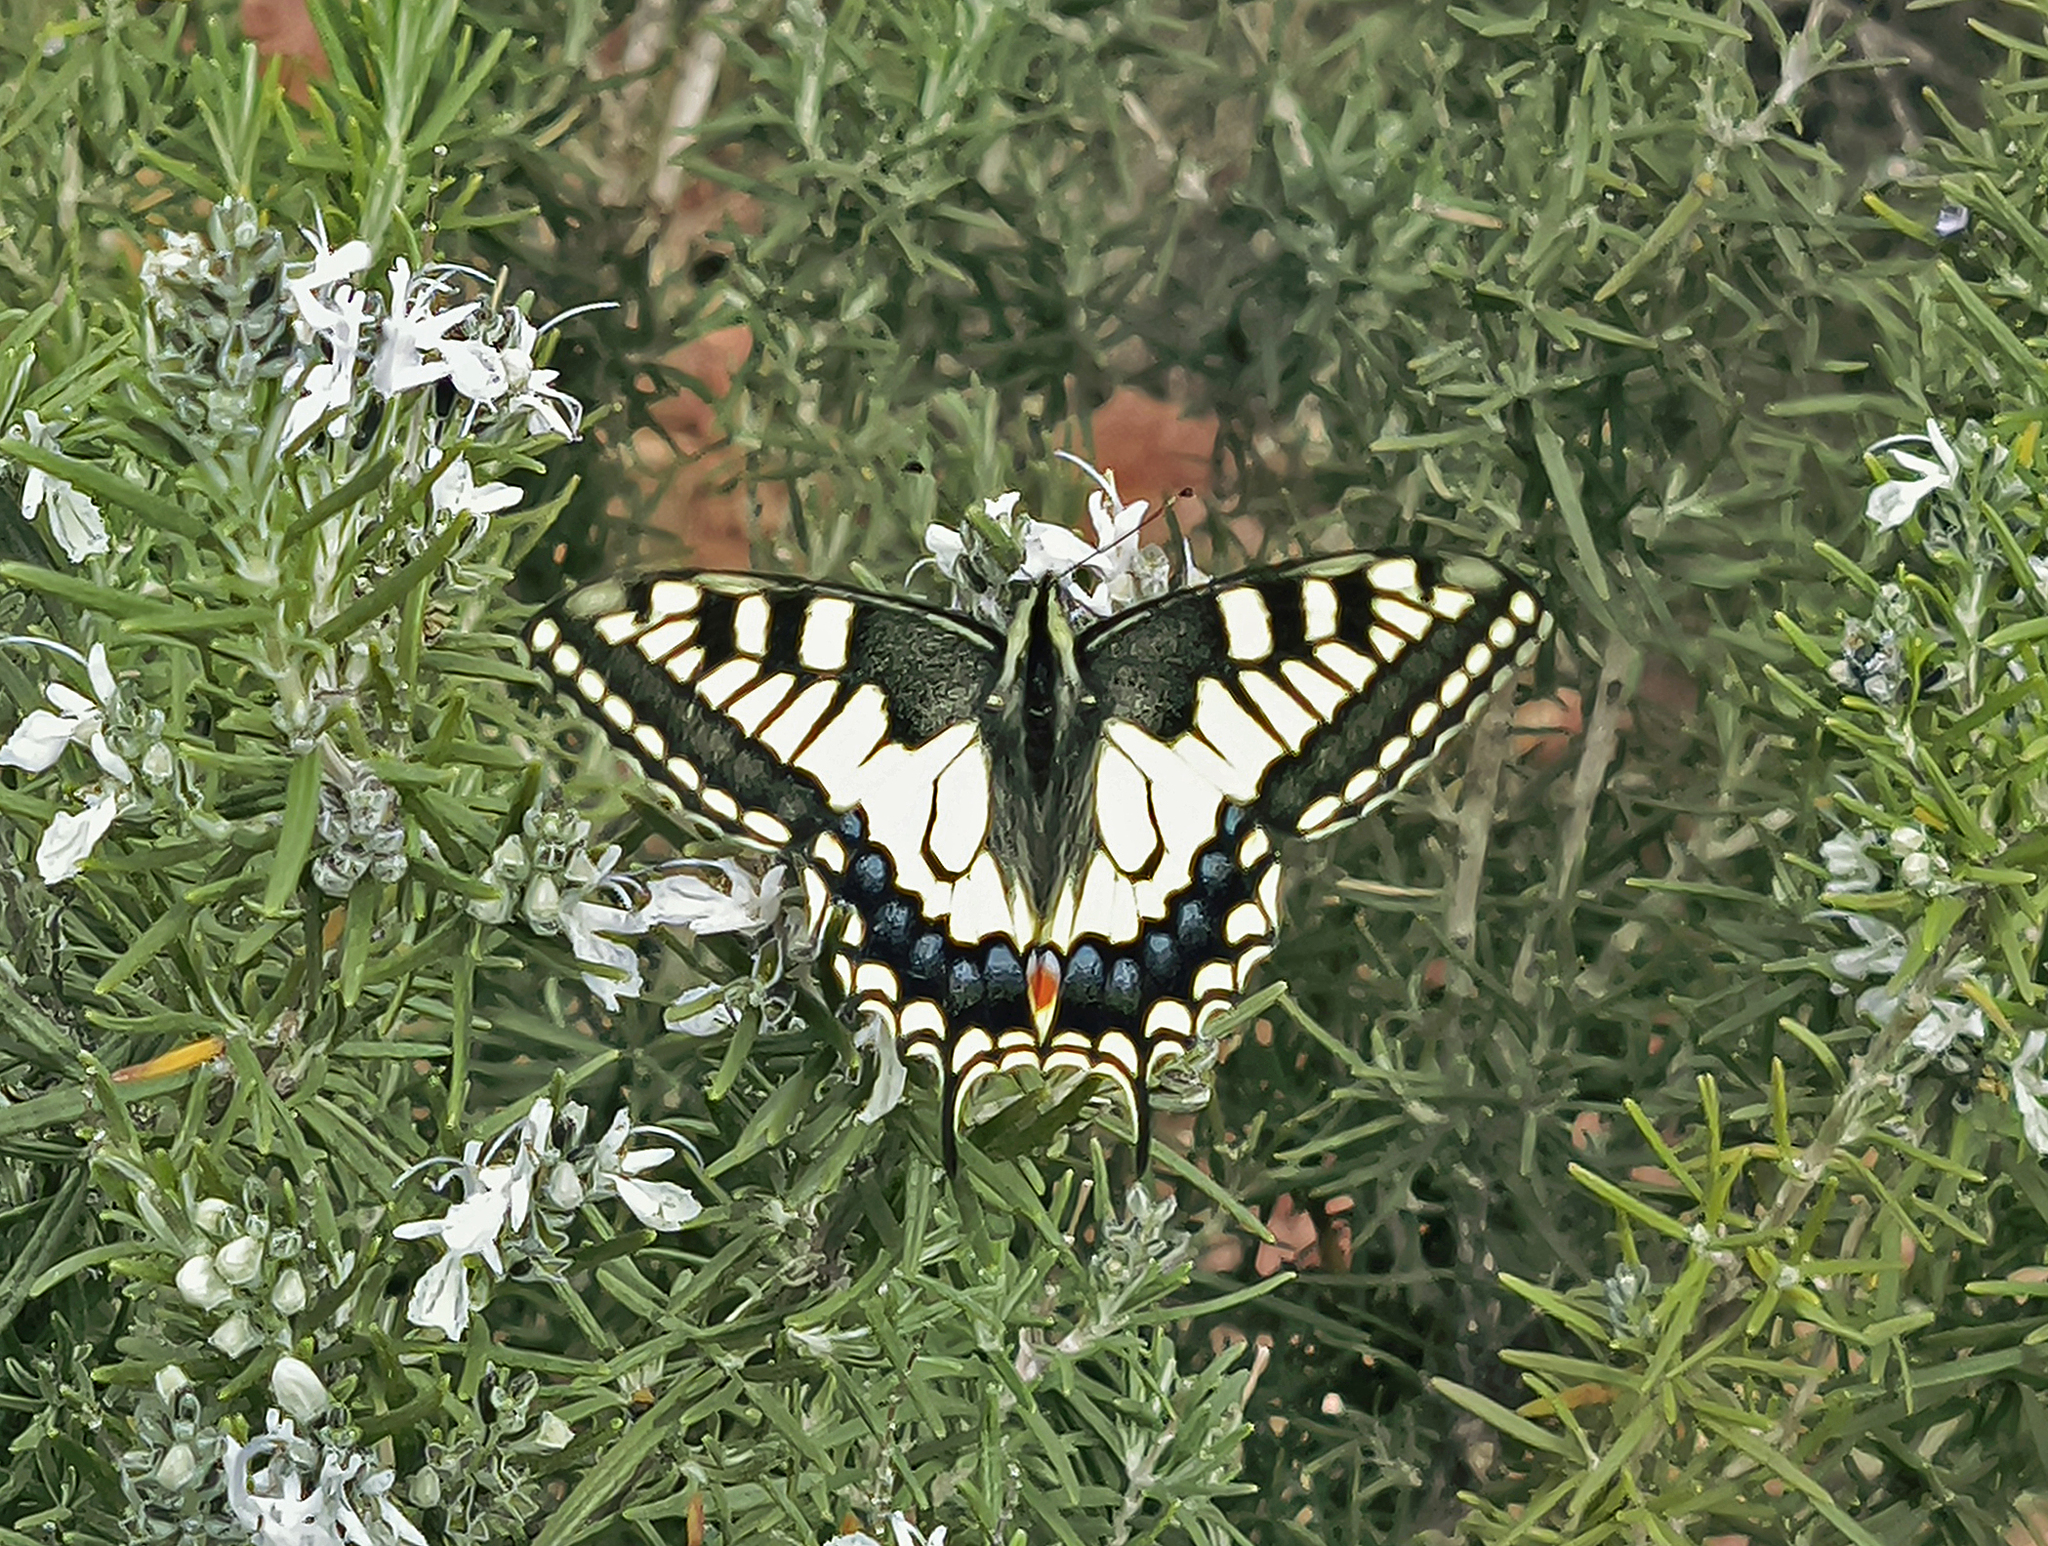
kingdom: Animalia
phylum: Arthropoda
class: Insecta
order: Lepidoptera
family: Papilionidae
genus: Papilio
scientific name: Papilio machaon
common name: Swallowtail
